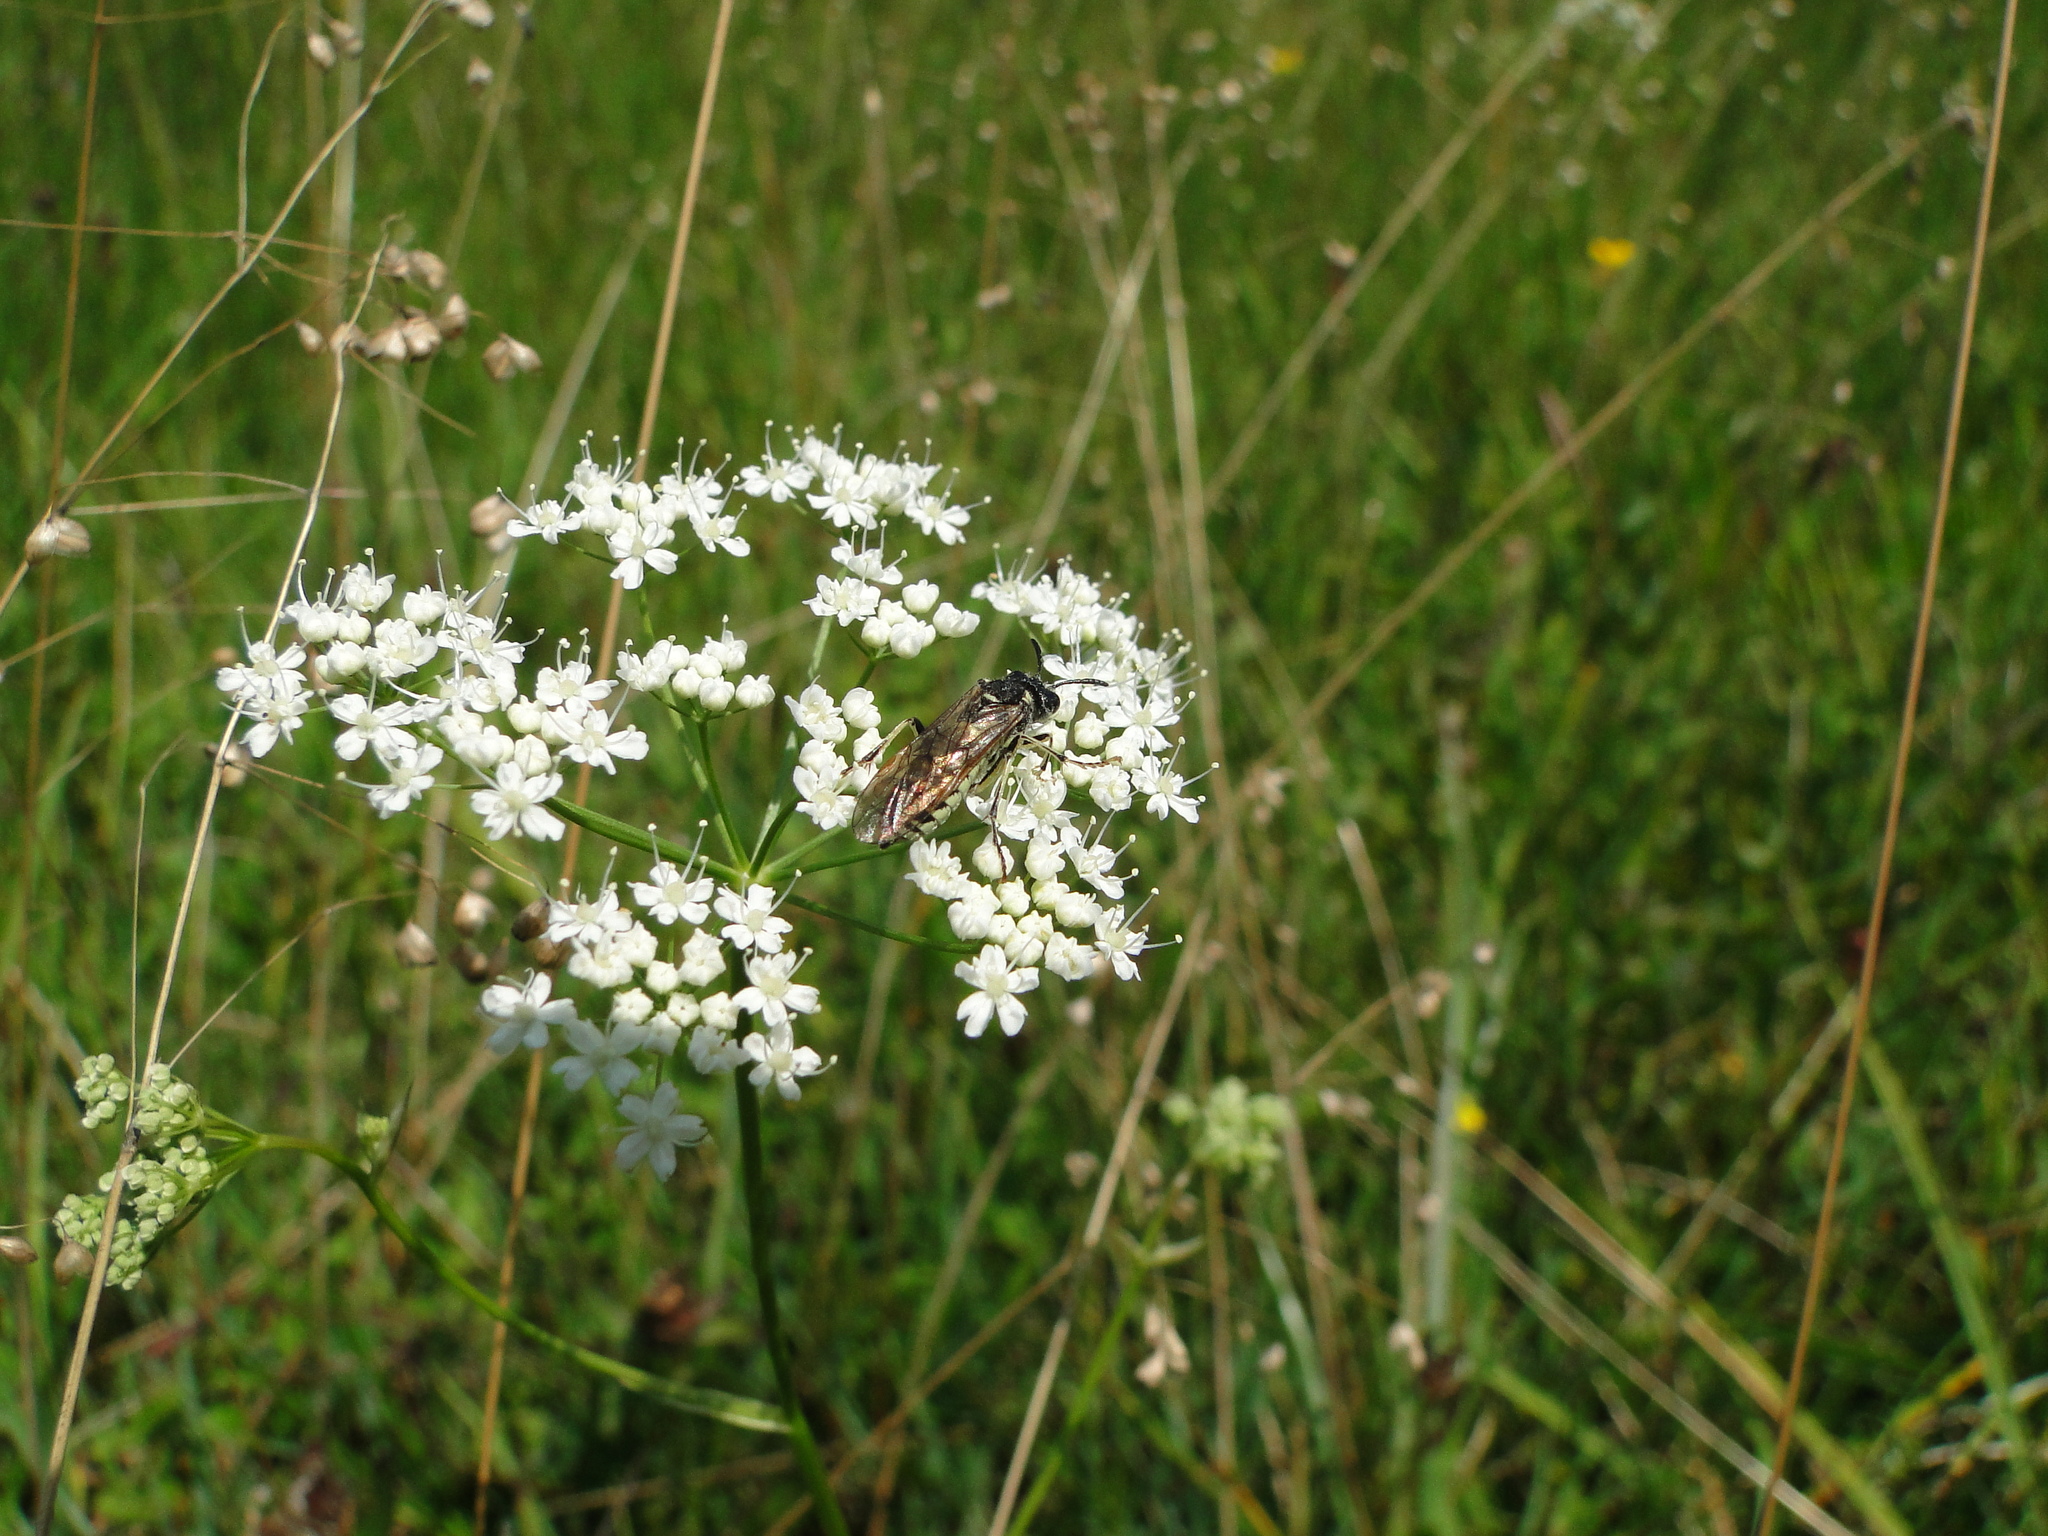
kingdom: Animalia
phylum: Arthropoda
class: Insecta
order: Hymenoptera
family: Tenthredinidae
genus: Tenthredo
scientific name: Tenthredo arcuata
